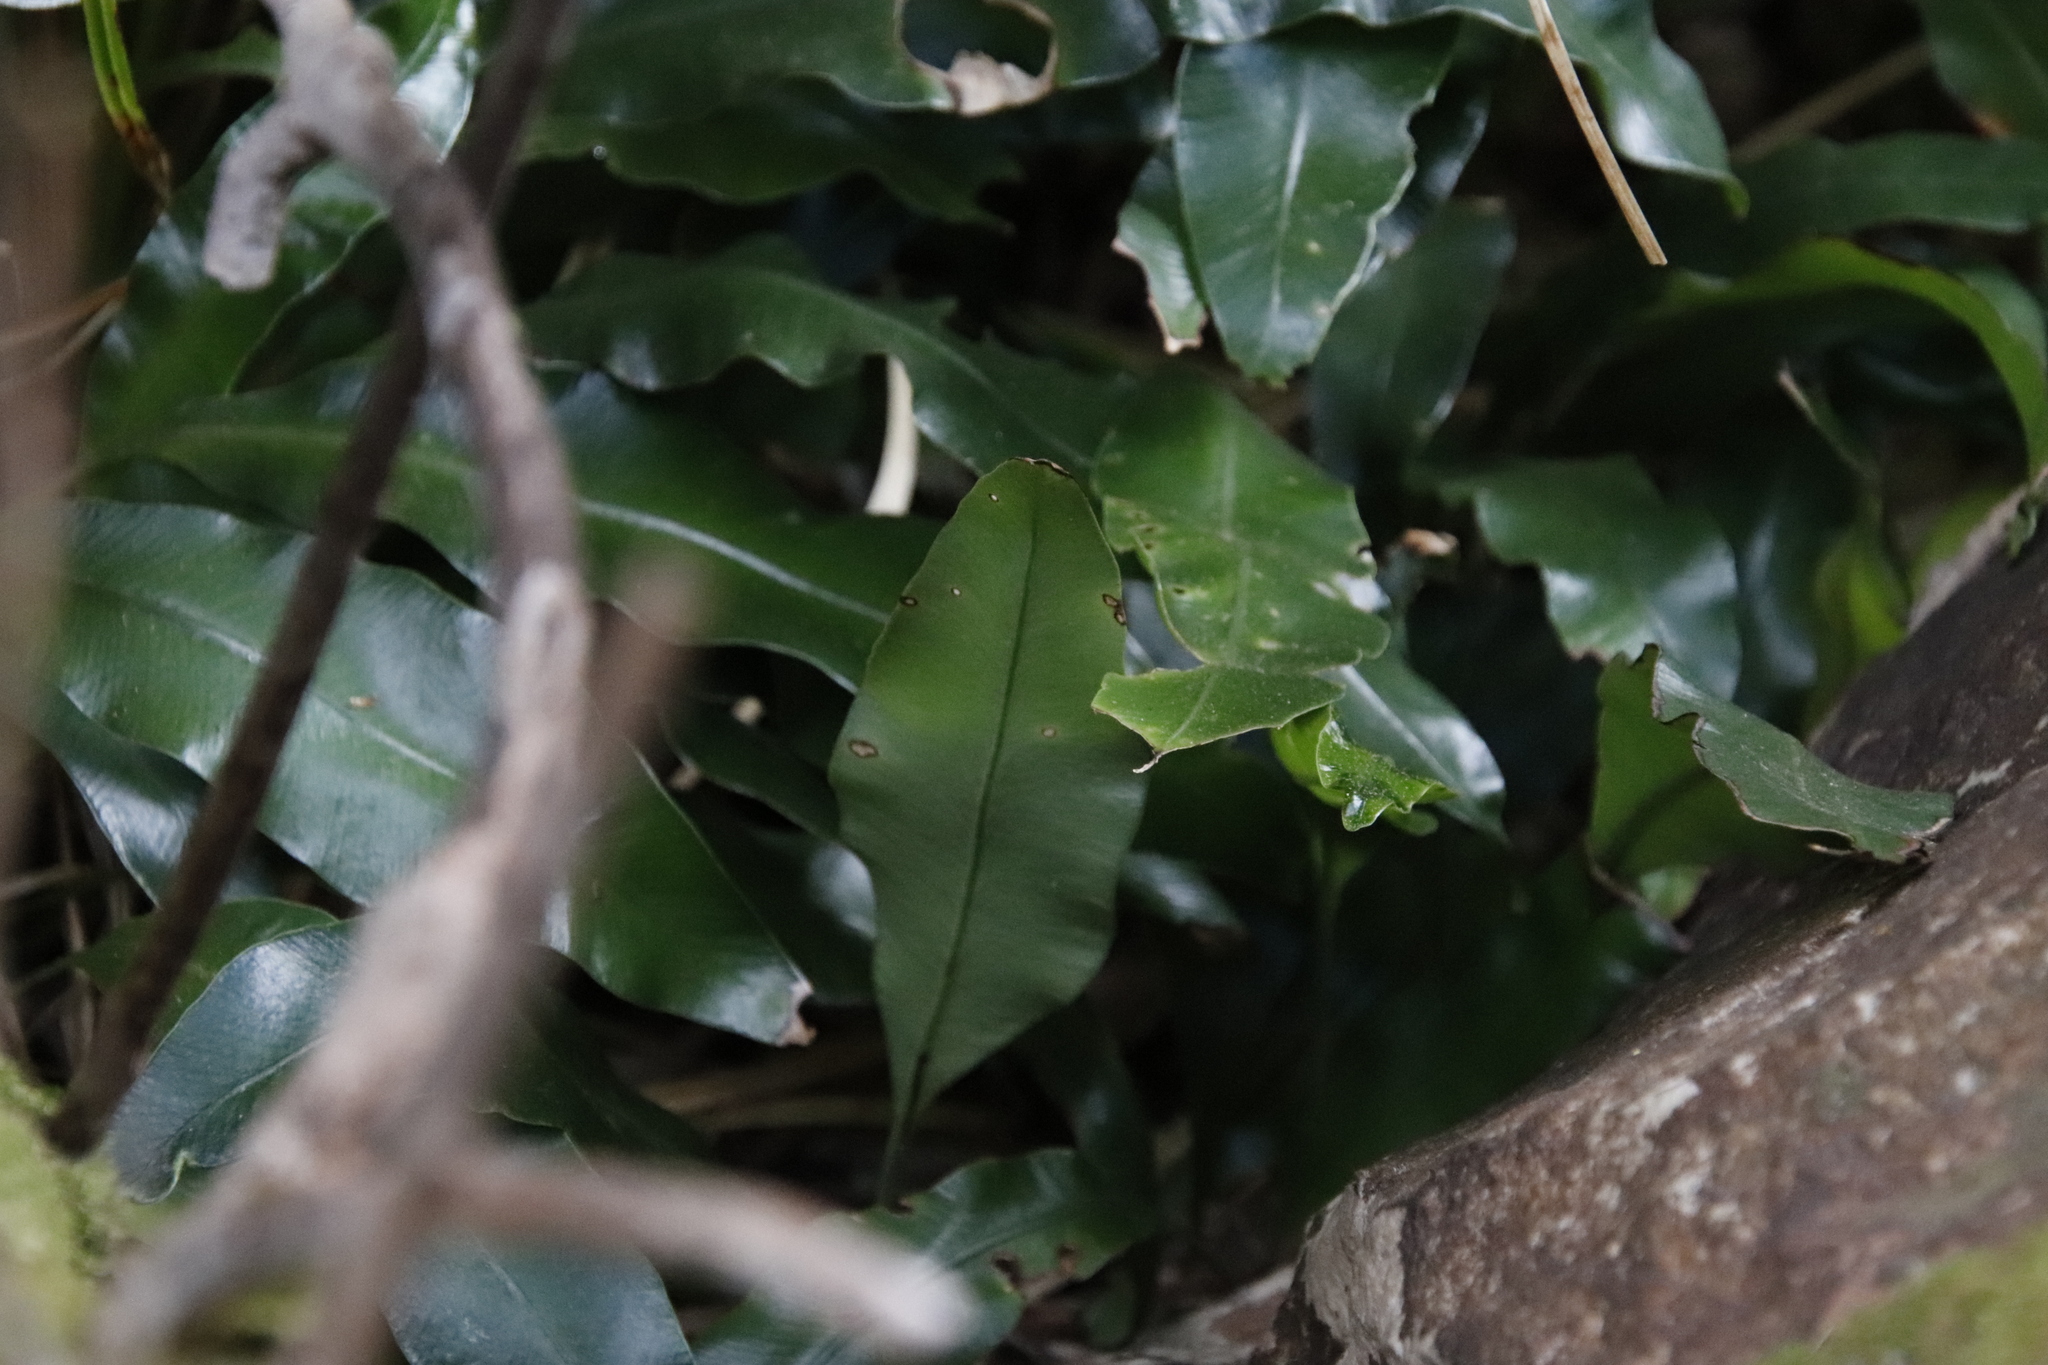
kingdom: Plantae
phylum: Tracheophyta
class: Polypodiopsida
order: Polypodiales
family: Dryopteridaceae
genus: Elaphoglossum
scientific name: Elaphoglossum angustatum
